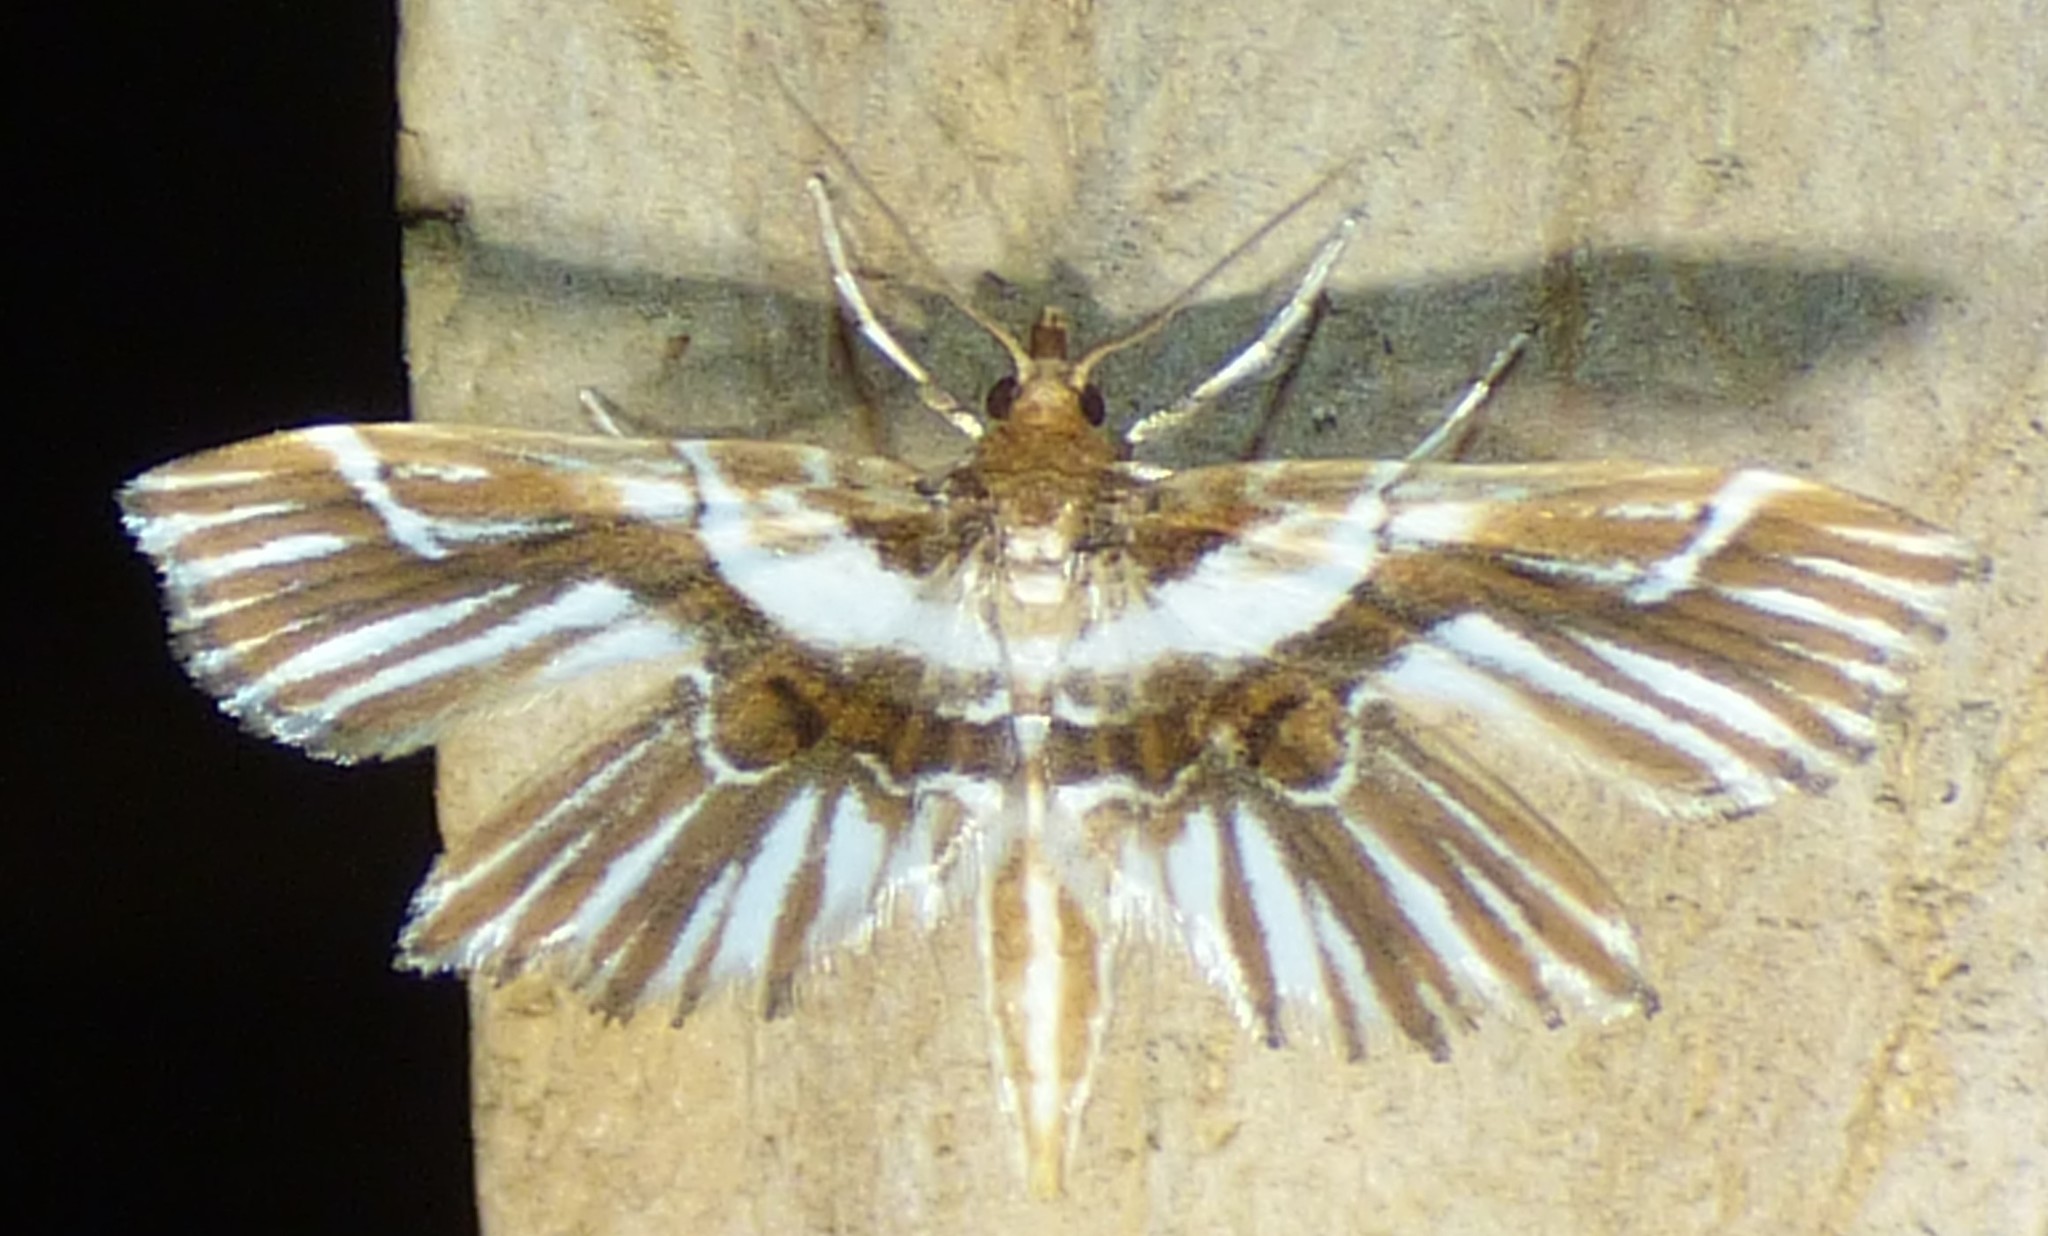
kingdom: Animalia
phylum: Arthropoda
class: Insecta
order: Lepidoptera
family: Pyralidae
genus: Undulambia
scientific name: Undulambia striatalis
